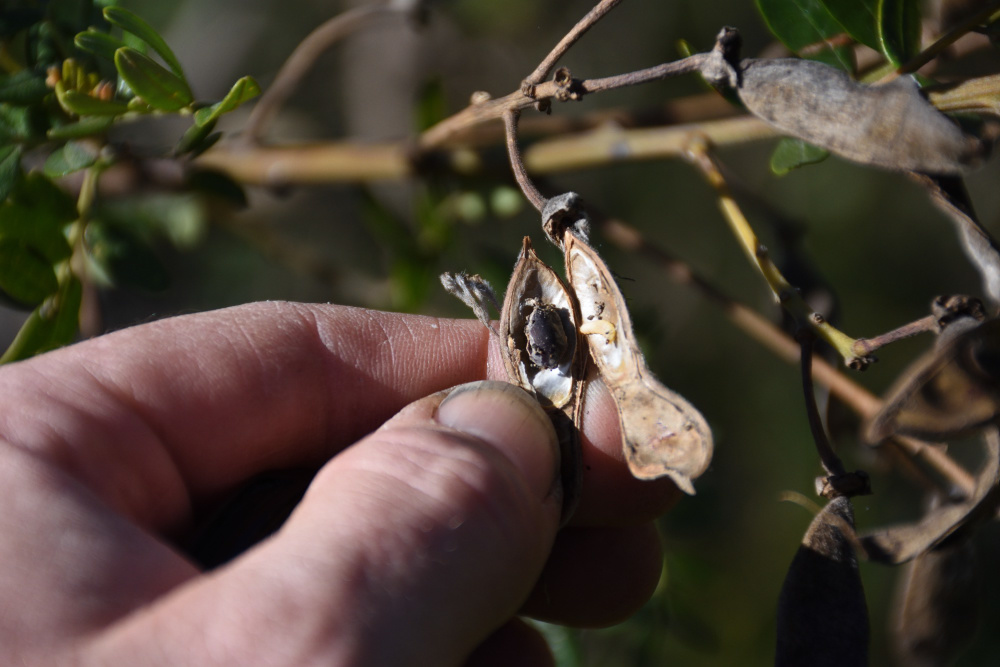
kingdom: Plantae
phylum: Tracheophyta
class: Magnoliopsida
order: Fabales
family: Fabaceae
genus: Virgilia
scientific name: Virgilia oroboides
